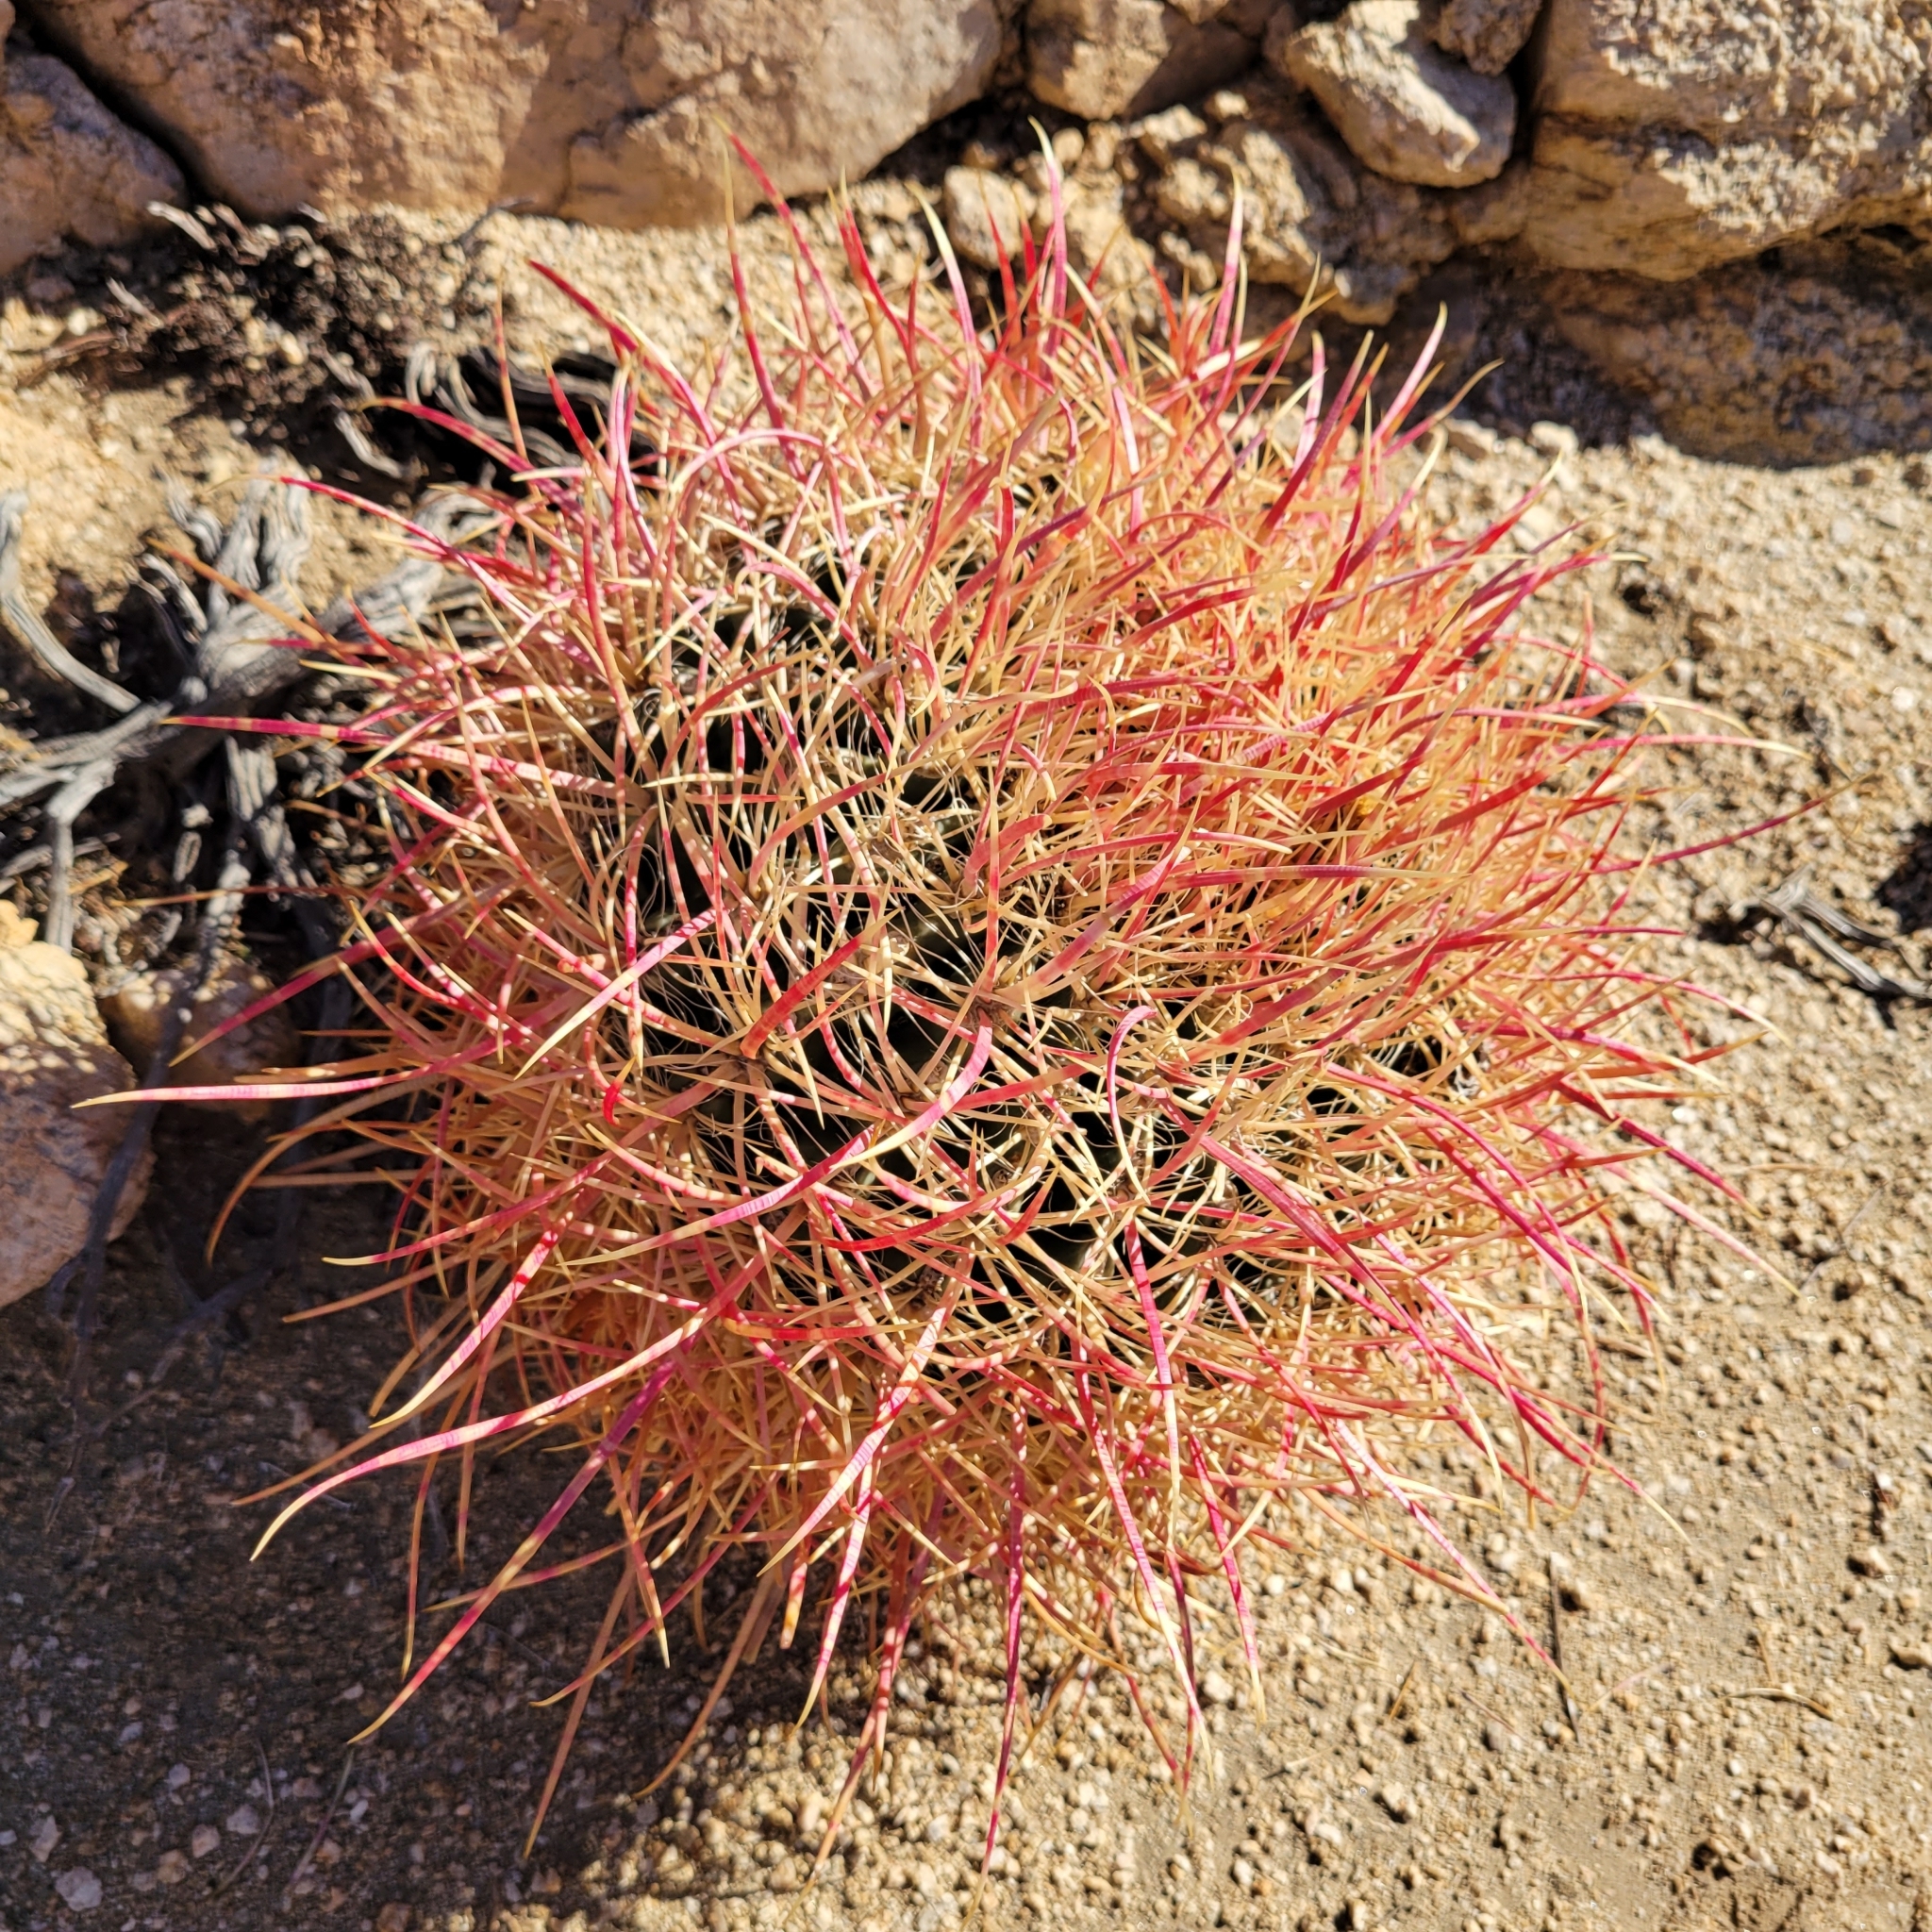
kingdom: Plantae
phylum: Tracheophyta
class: Magnoliopsida
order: Caryophyllales
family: Cactaceae
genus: Ferocactus
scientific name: Ferocactus cylindraceus
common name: California barrel cactus
